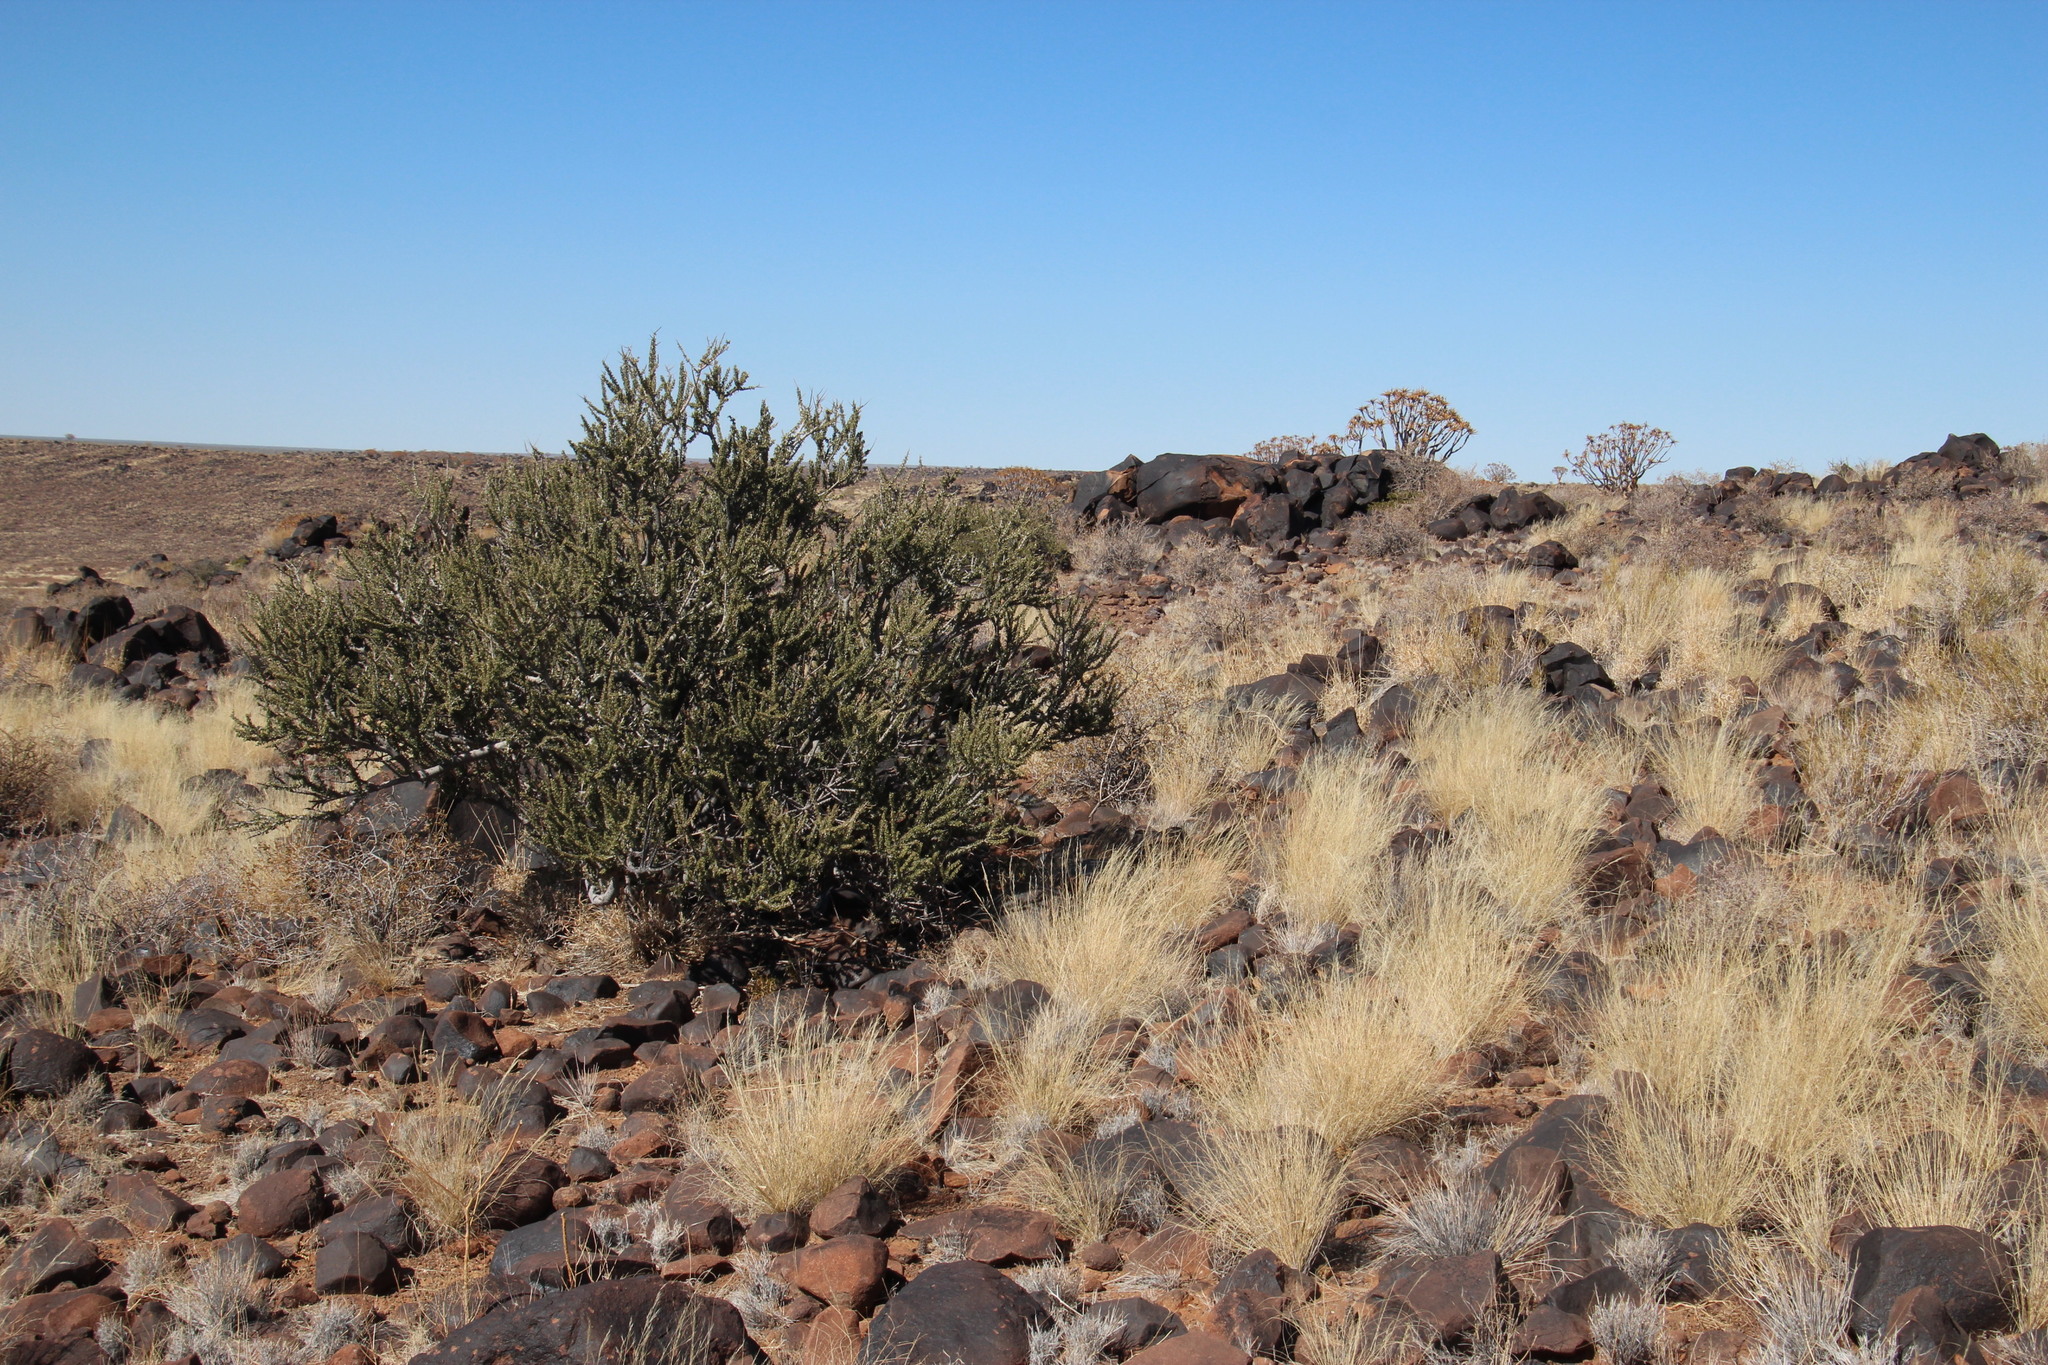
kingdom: Plantae
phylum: Tracheophyta
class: Magnoliopsida
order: Brassicales
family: Capparaceae
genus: Boscia
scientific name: Boscia foetida
